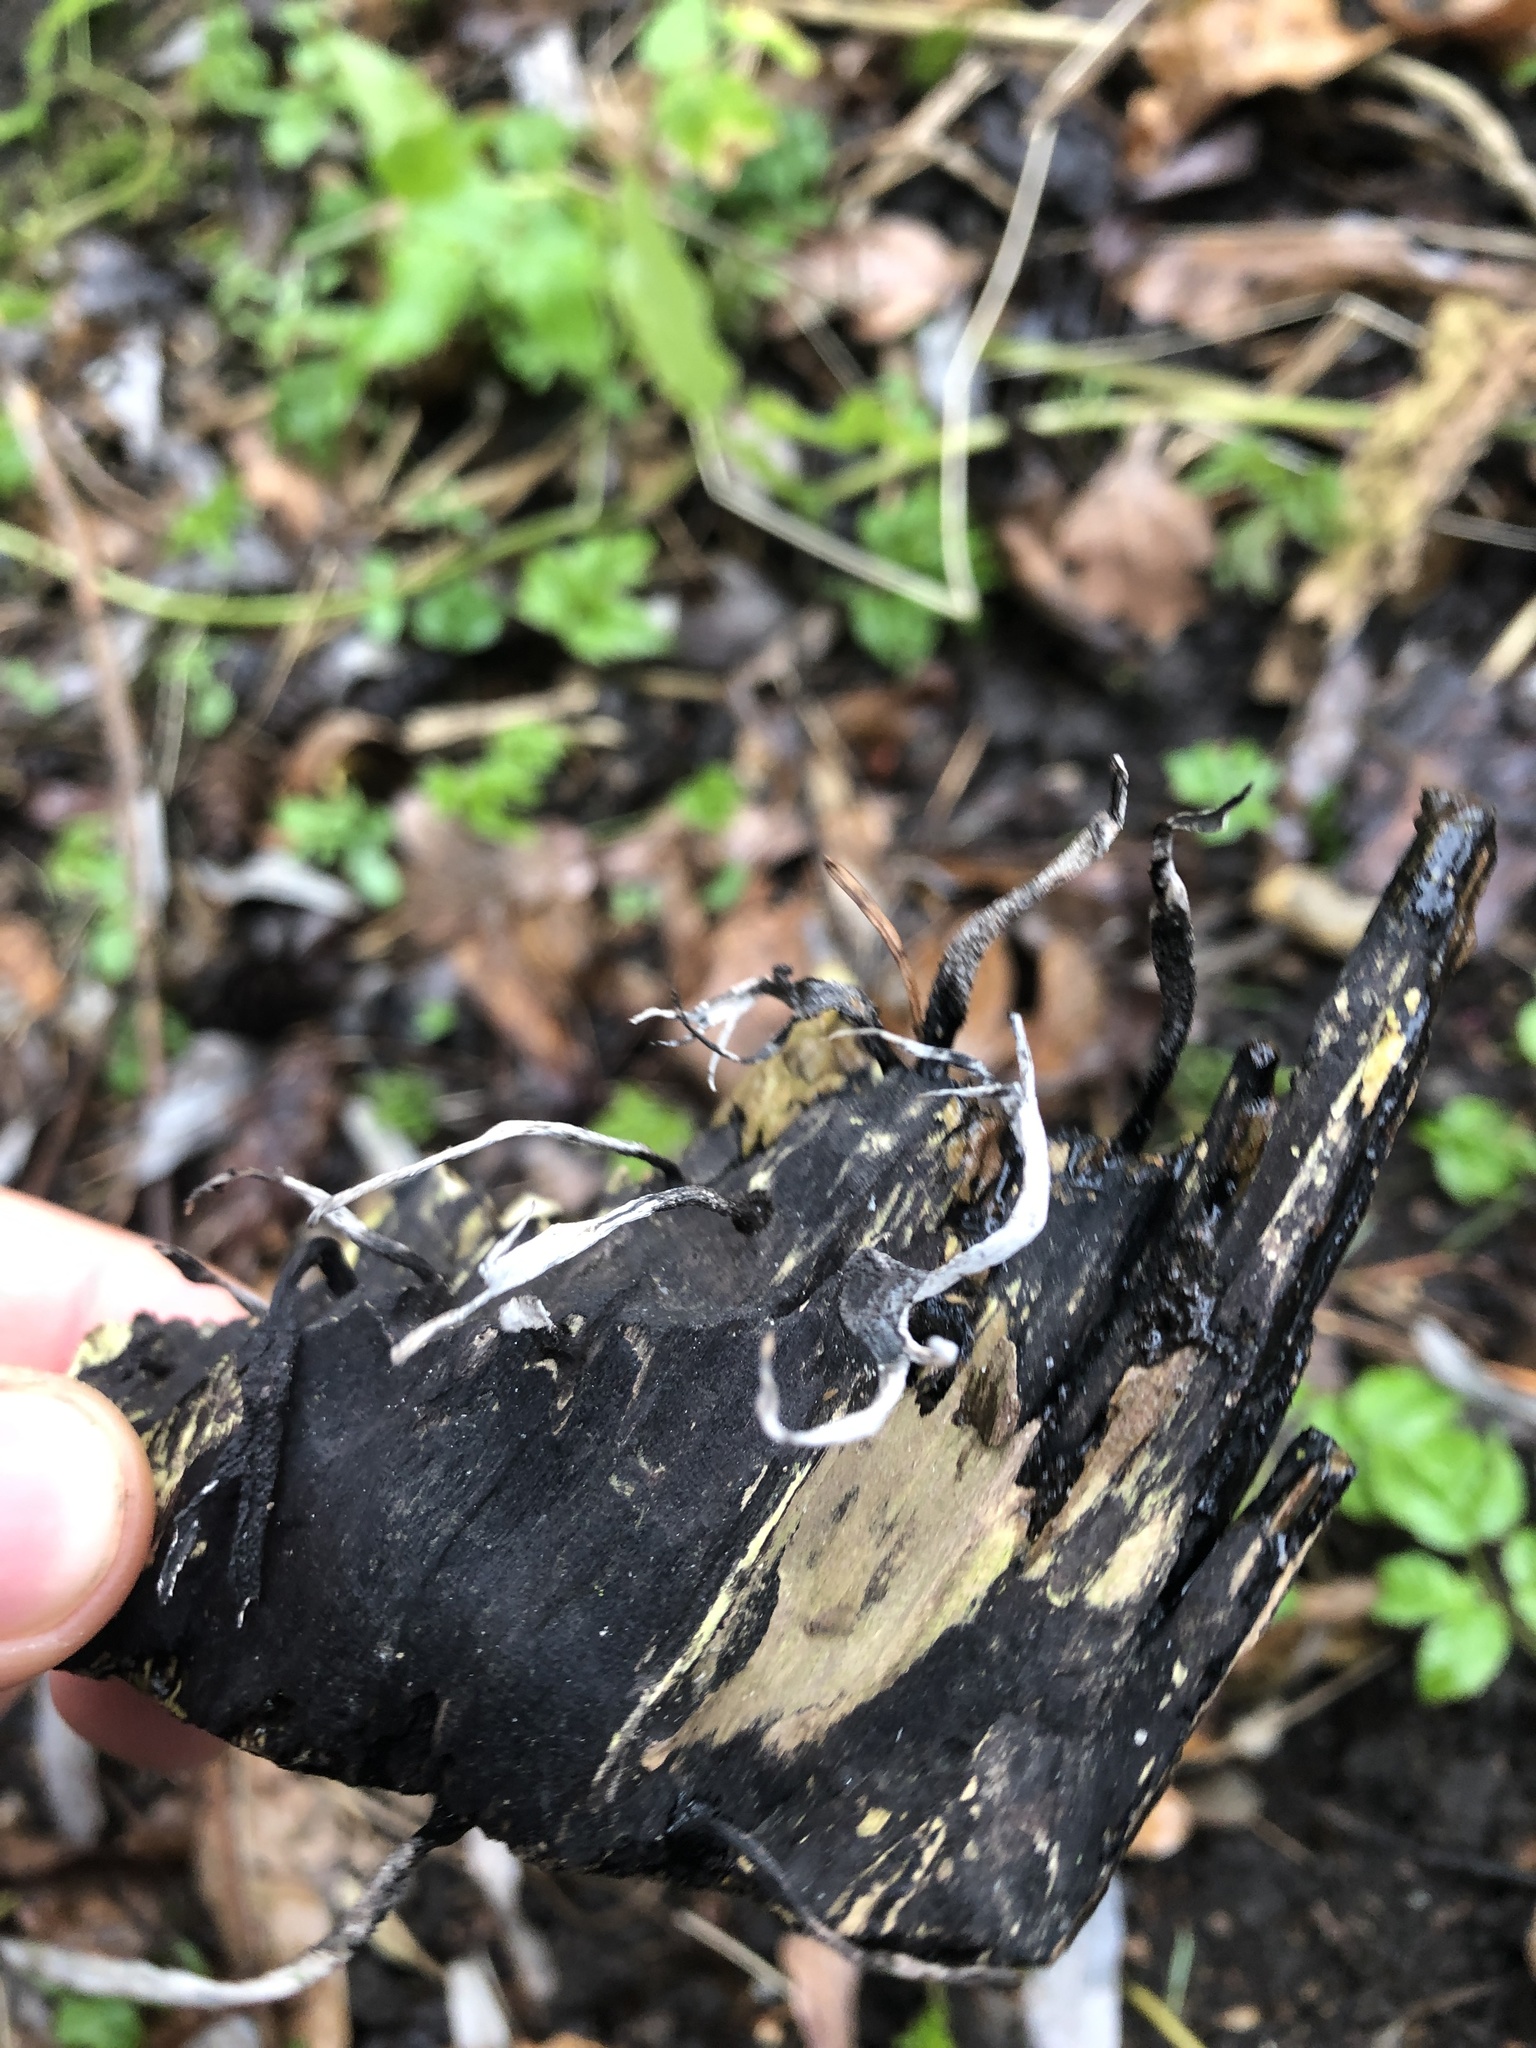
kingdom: Fungi
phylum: Ascomycota
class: Sordariomycetes
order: Xylariales
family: Xylariaceae
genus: Xylaria
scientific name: Xylaria hypoxylon
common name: Candle-snuff fungus
